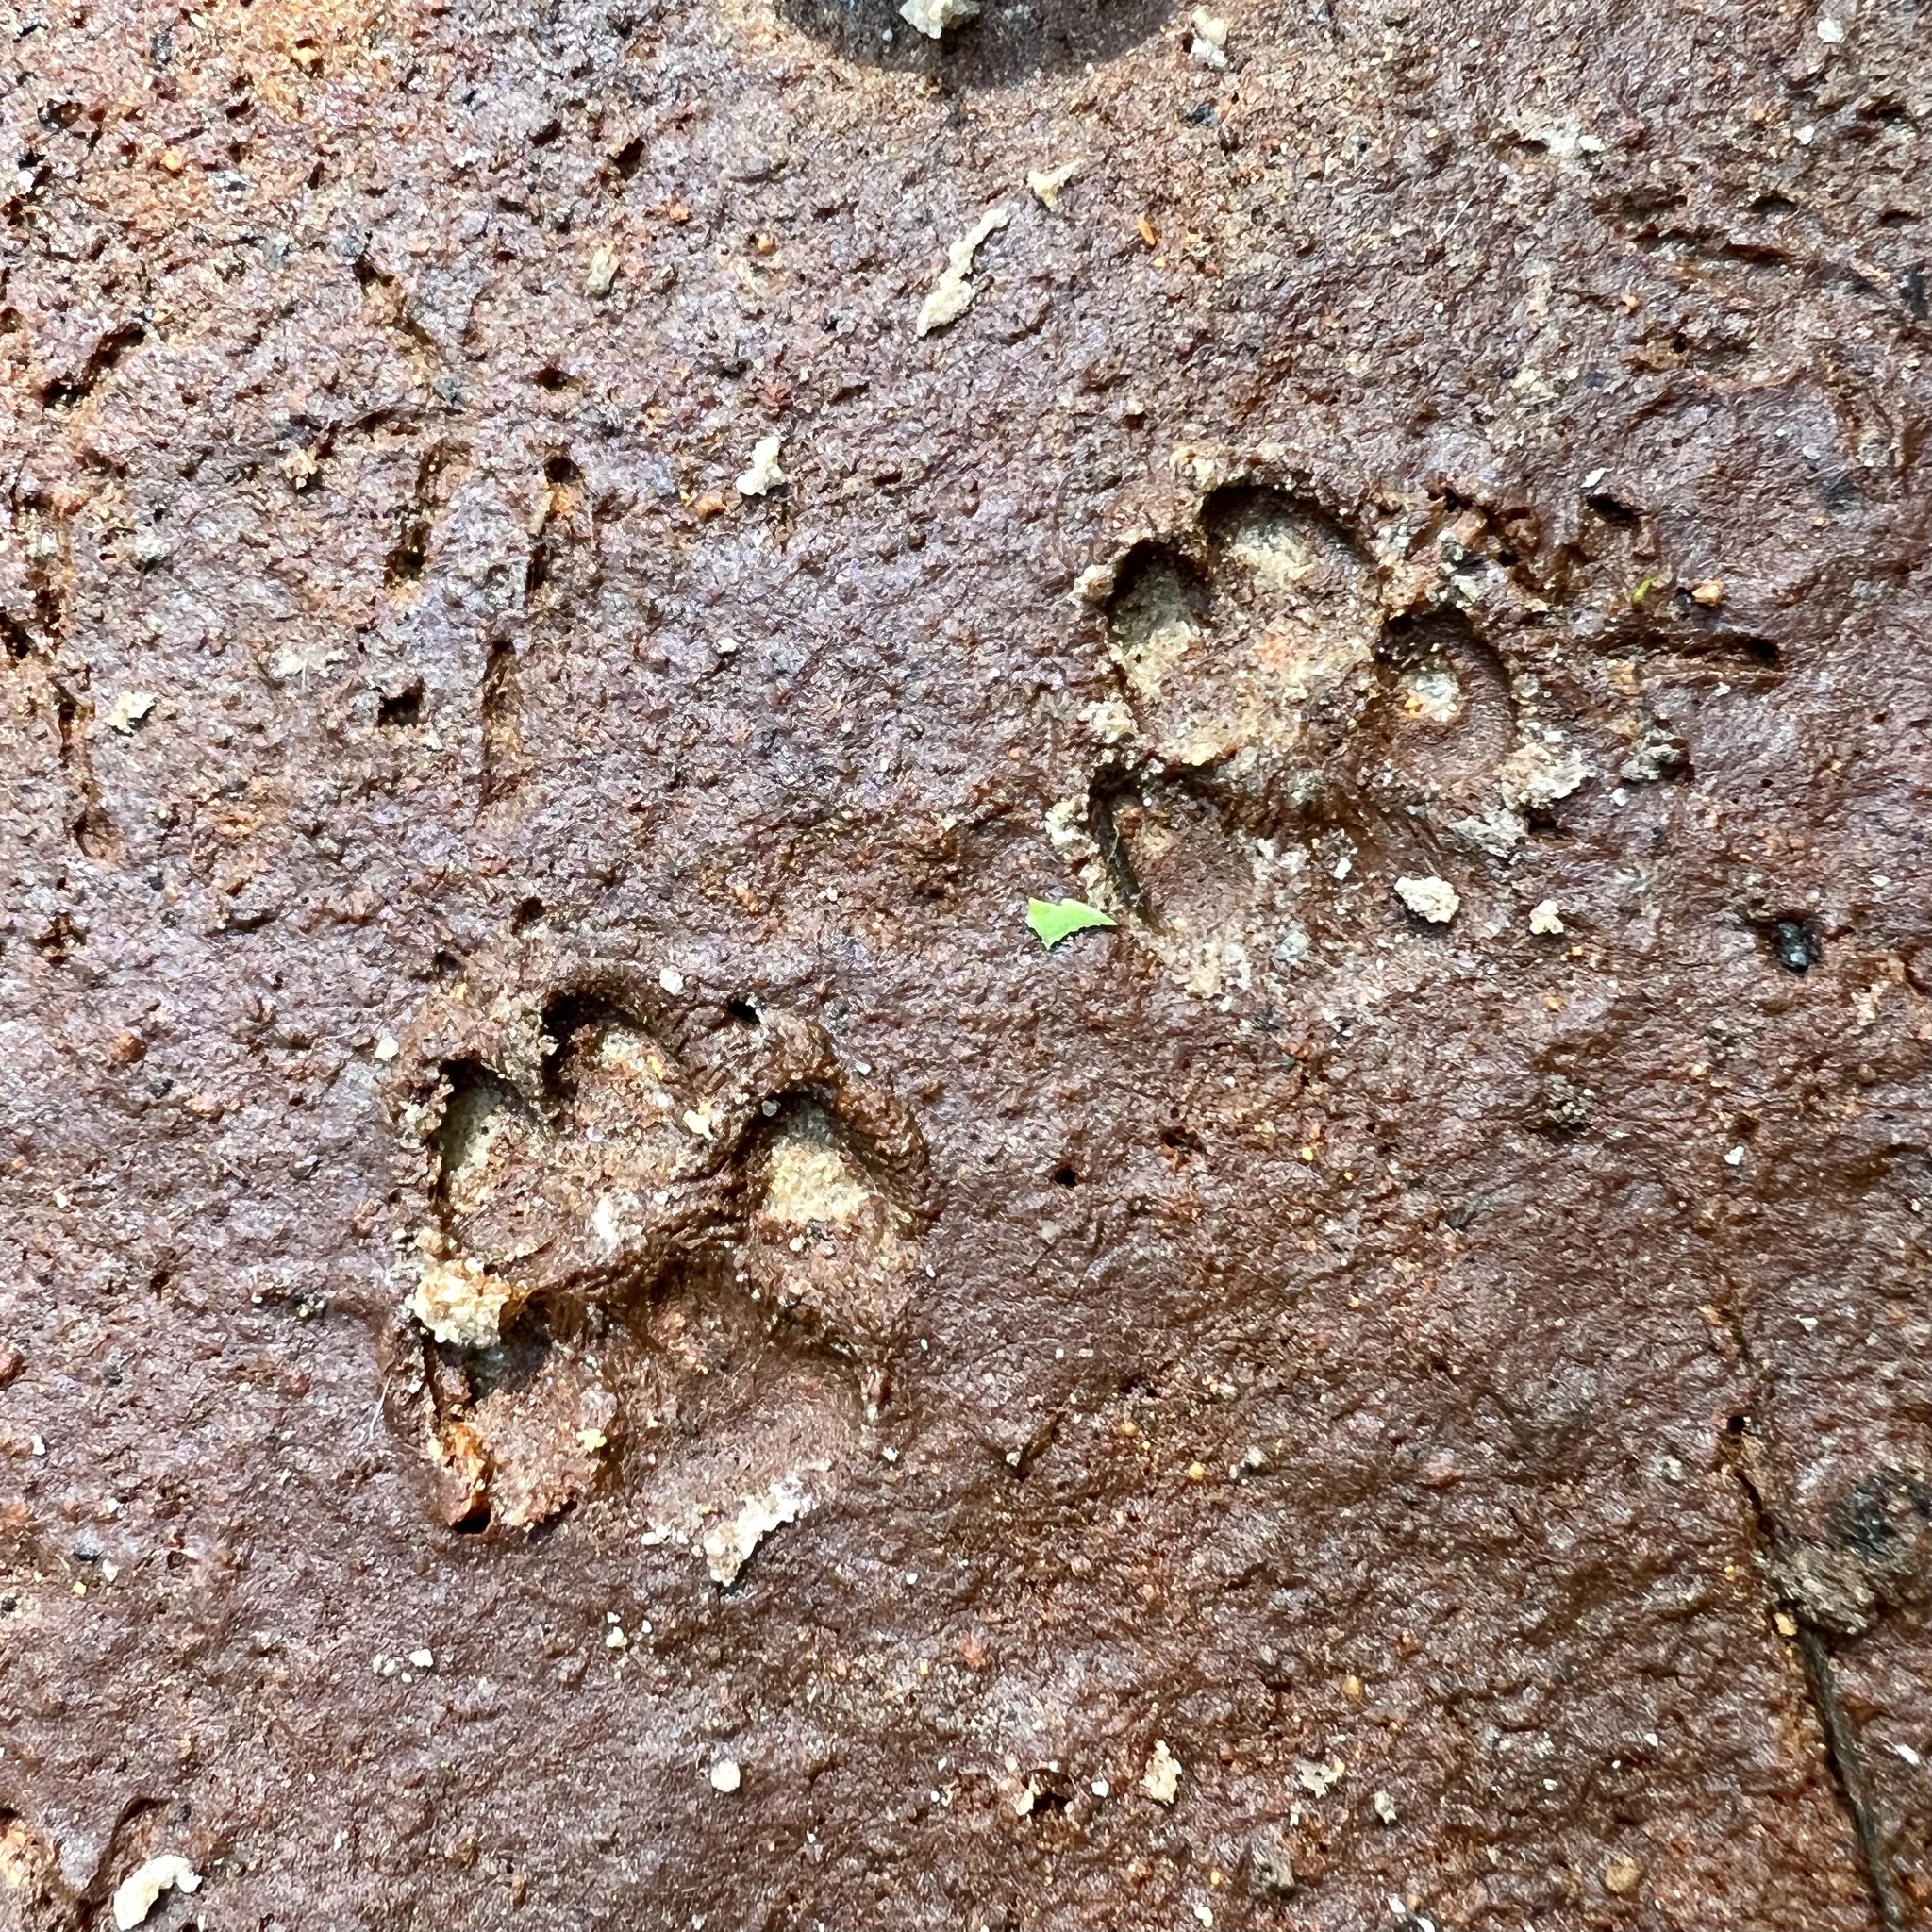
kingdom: Animalia
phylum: Chordata
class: Mammalia
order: Carnivora
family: Canidae
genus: Canis
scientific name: Canis lupus
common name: Gray wolf
